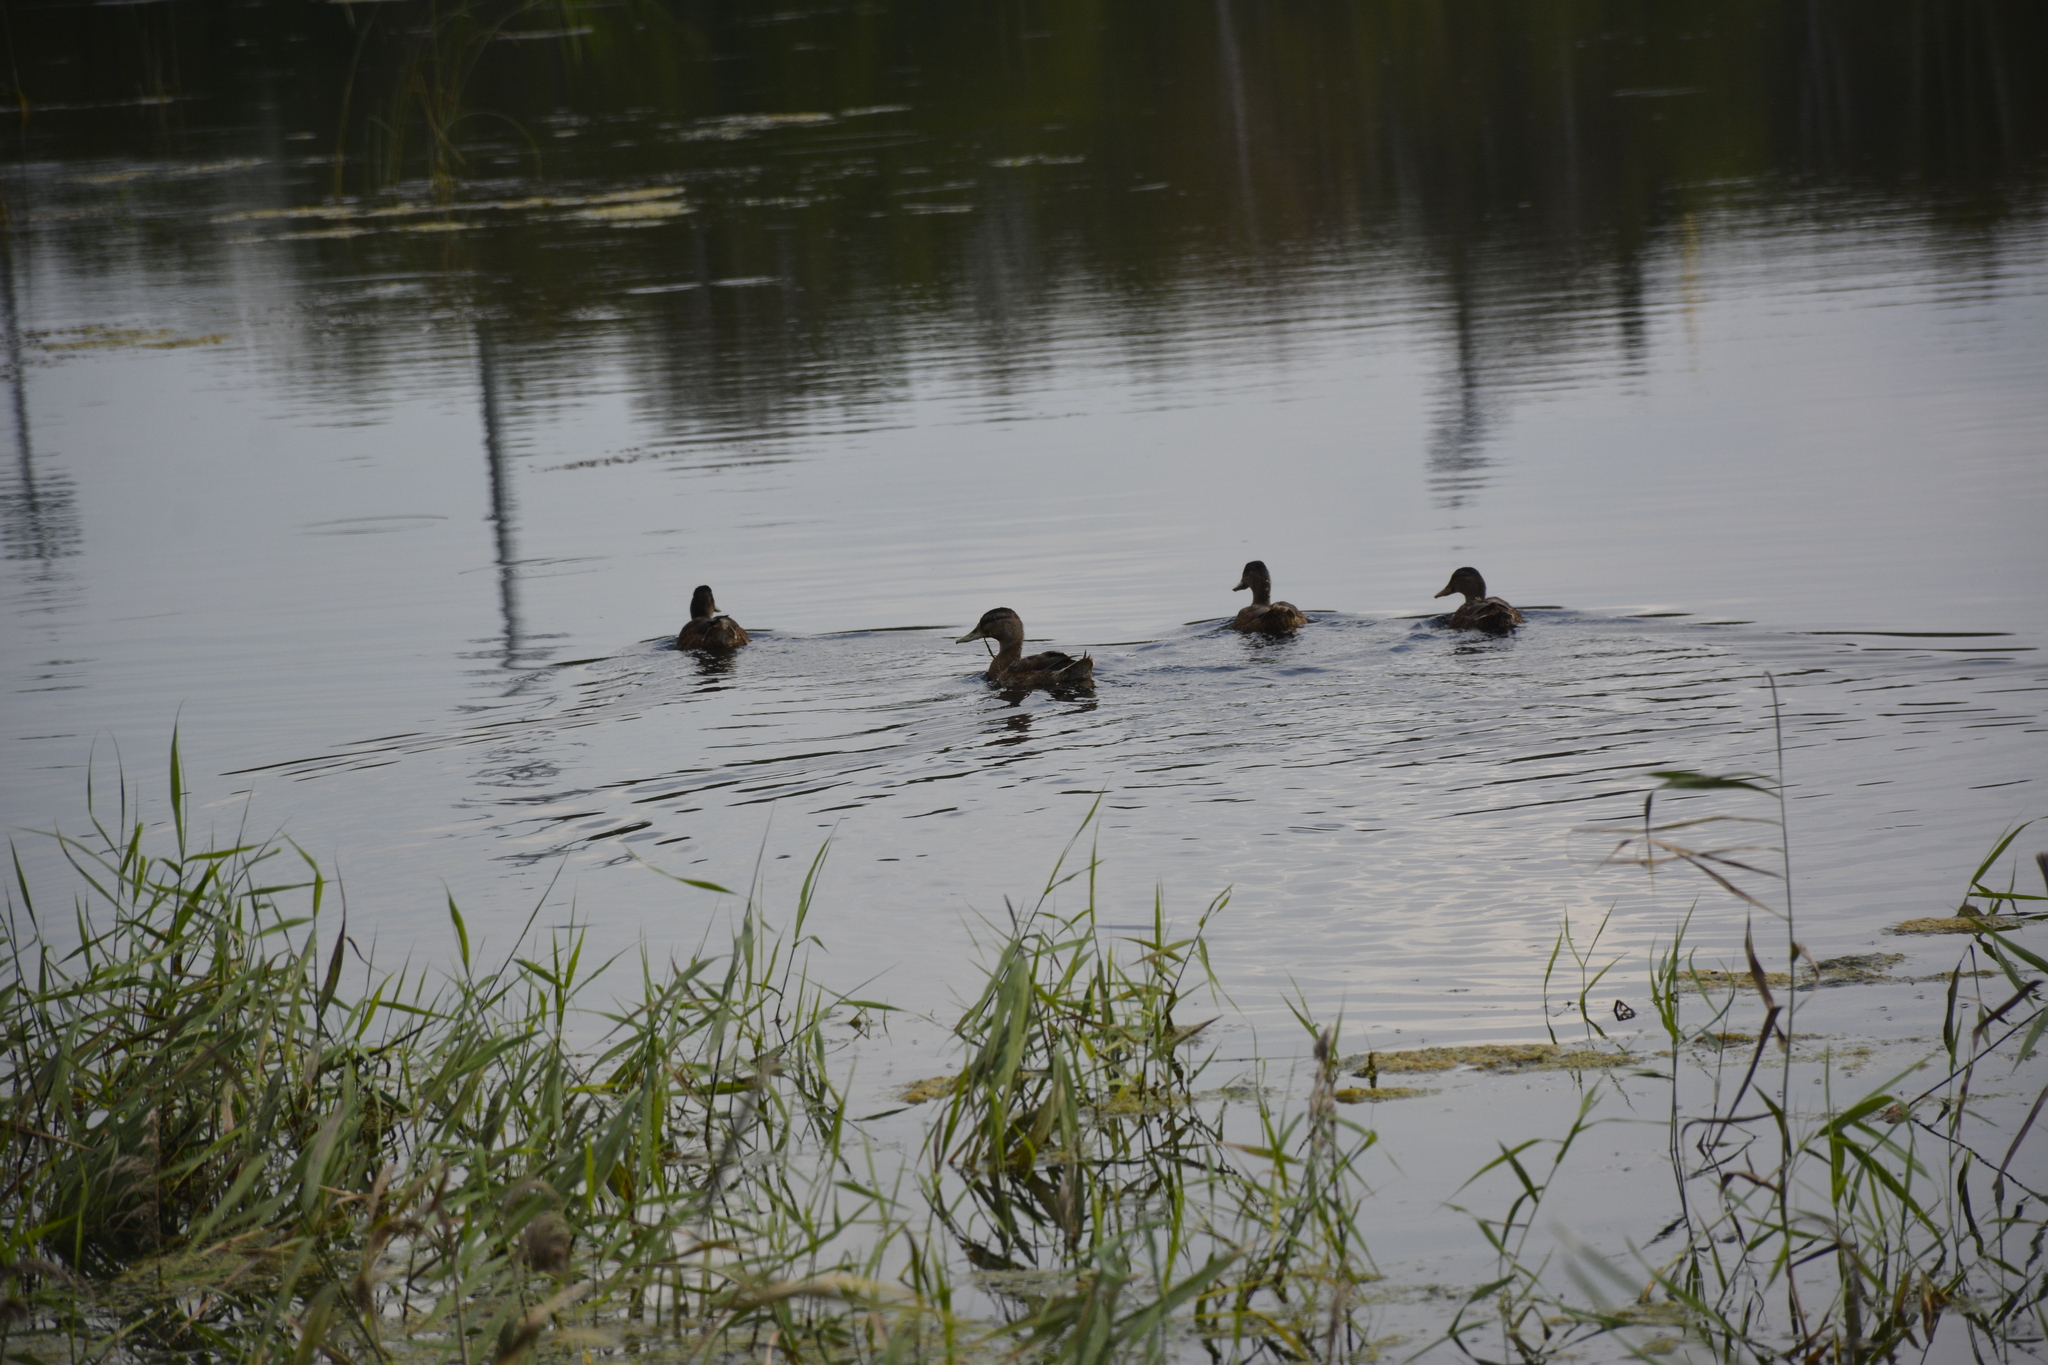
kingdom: Animalia
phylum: Chordata
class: Aves
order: Anseriformes
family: Anatidae
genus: Anas
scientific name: Anas platyrhynchos
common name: Mallard
